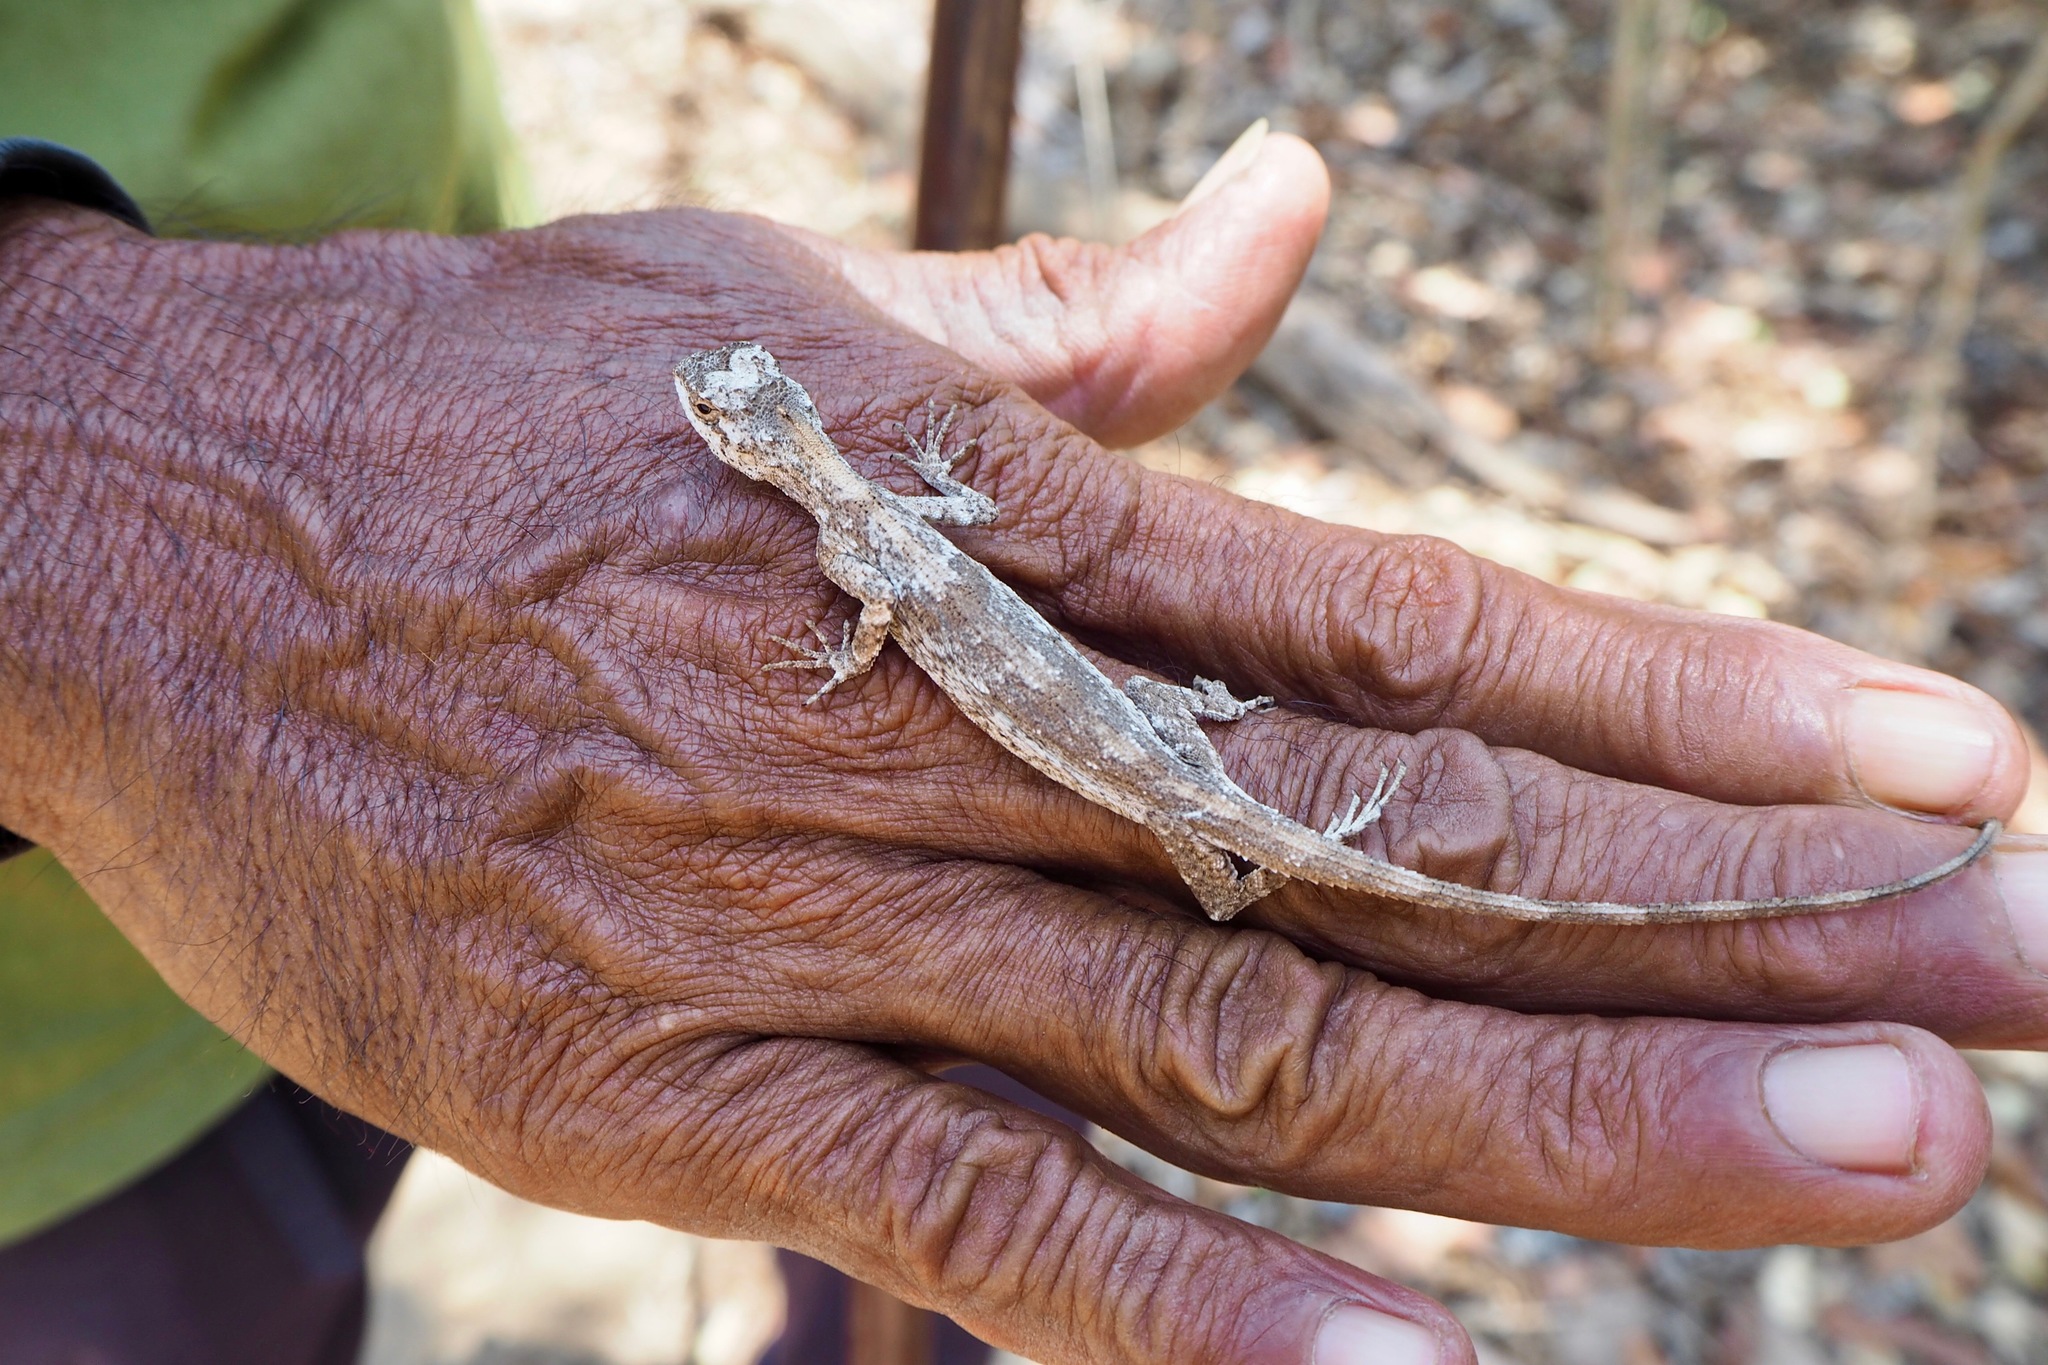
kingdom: Animalia
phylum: Chordata
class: Squamata
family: Agamidae
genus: Draco
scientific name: Draco boschmai
